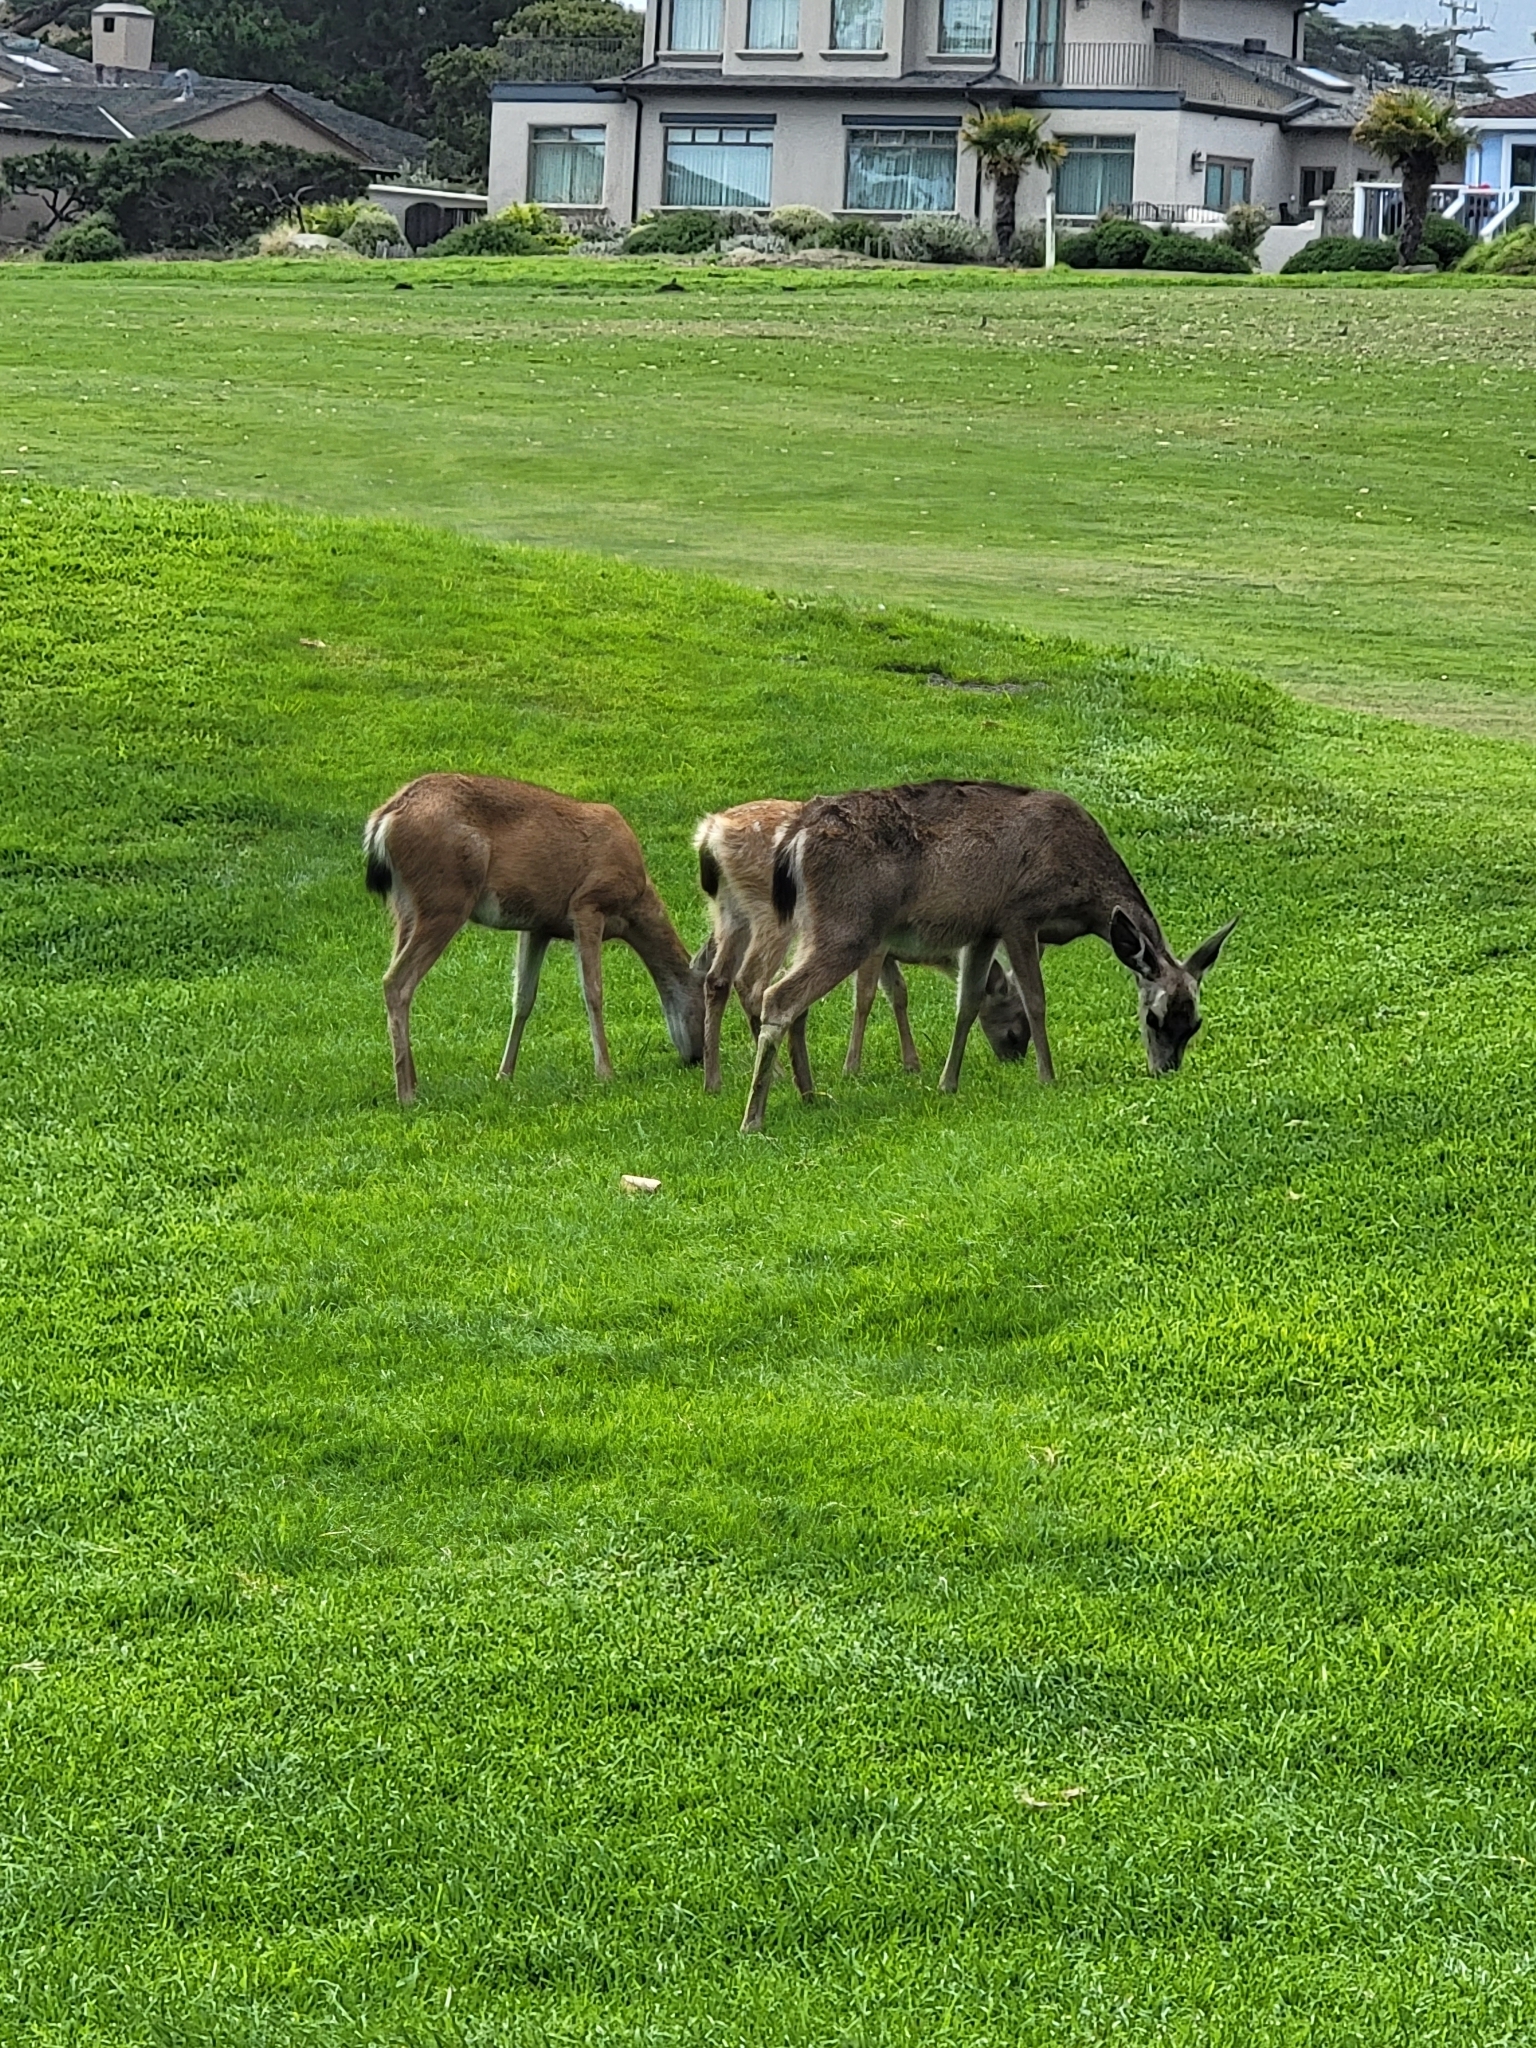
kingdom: Animalia
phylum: Chordata
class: Mammalia
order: Artiodactyla
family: Cervidae
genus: Odocoileus
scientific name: Odocoileus hemionus
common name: Mule deer
